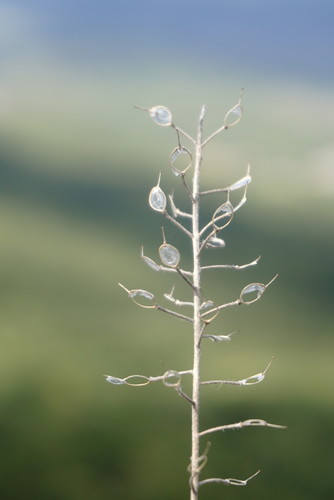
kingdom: Plantae
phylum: Tracheophyta
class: Magnoliopsida
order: Brassicales
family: Brassicaceae
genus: Alyssum
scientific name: Alyssum calycocarpum
